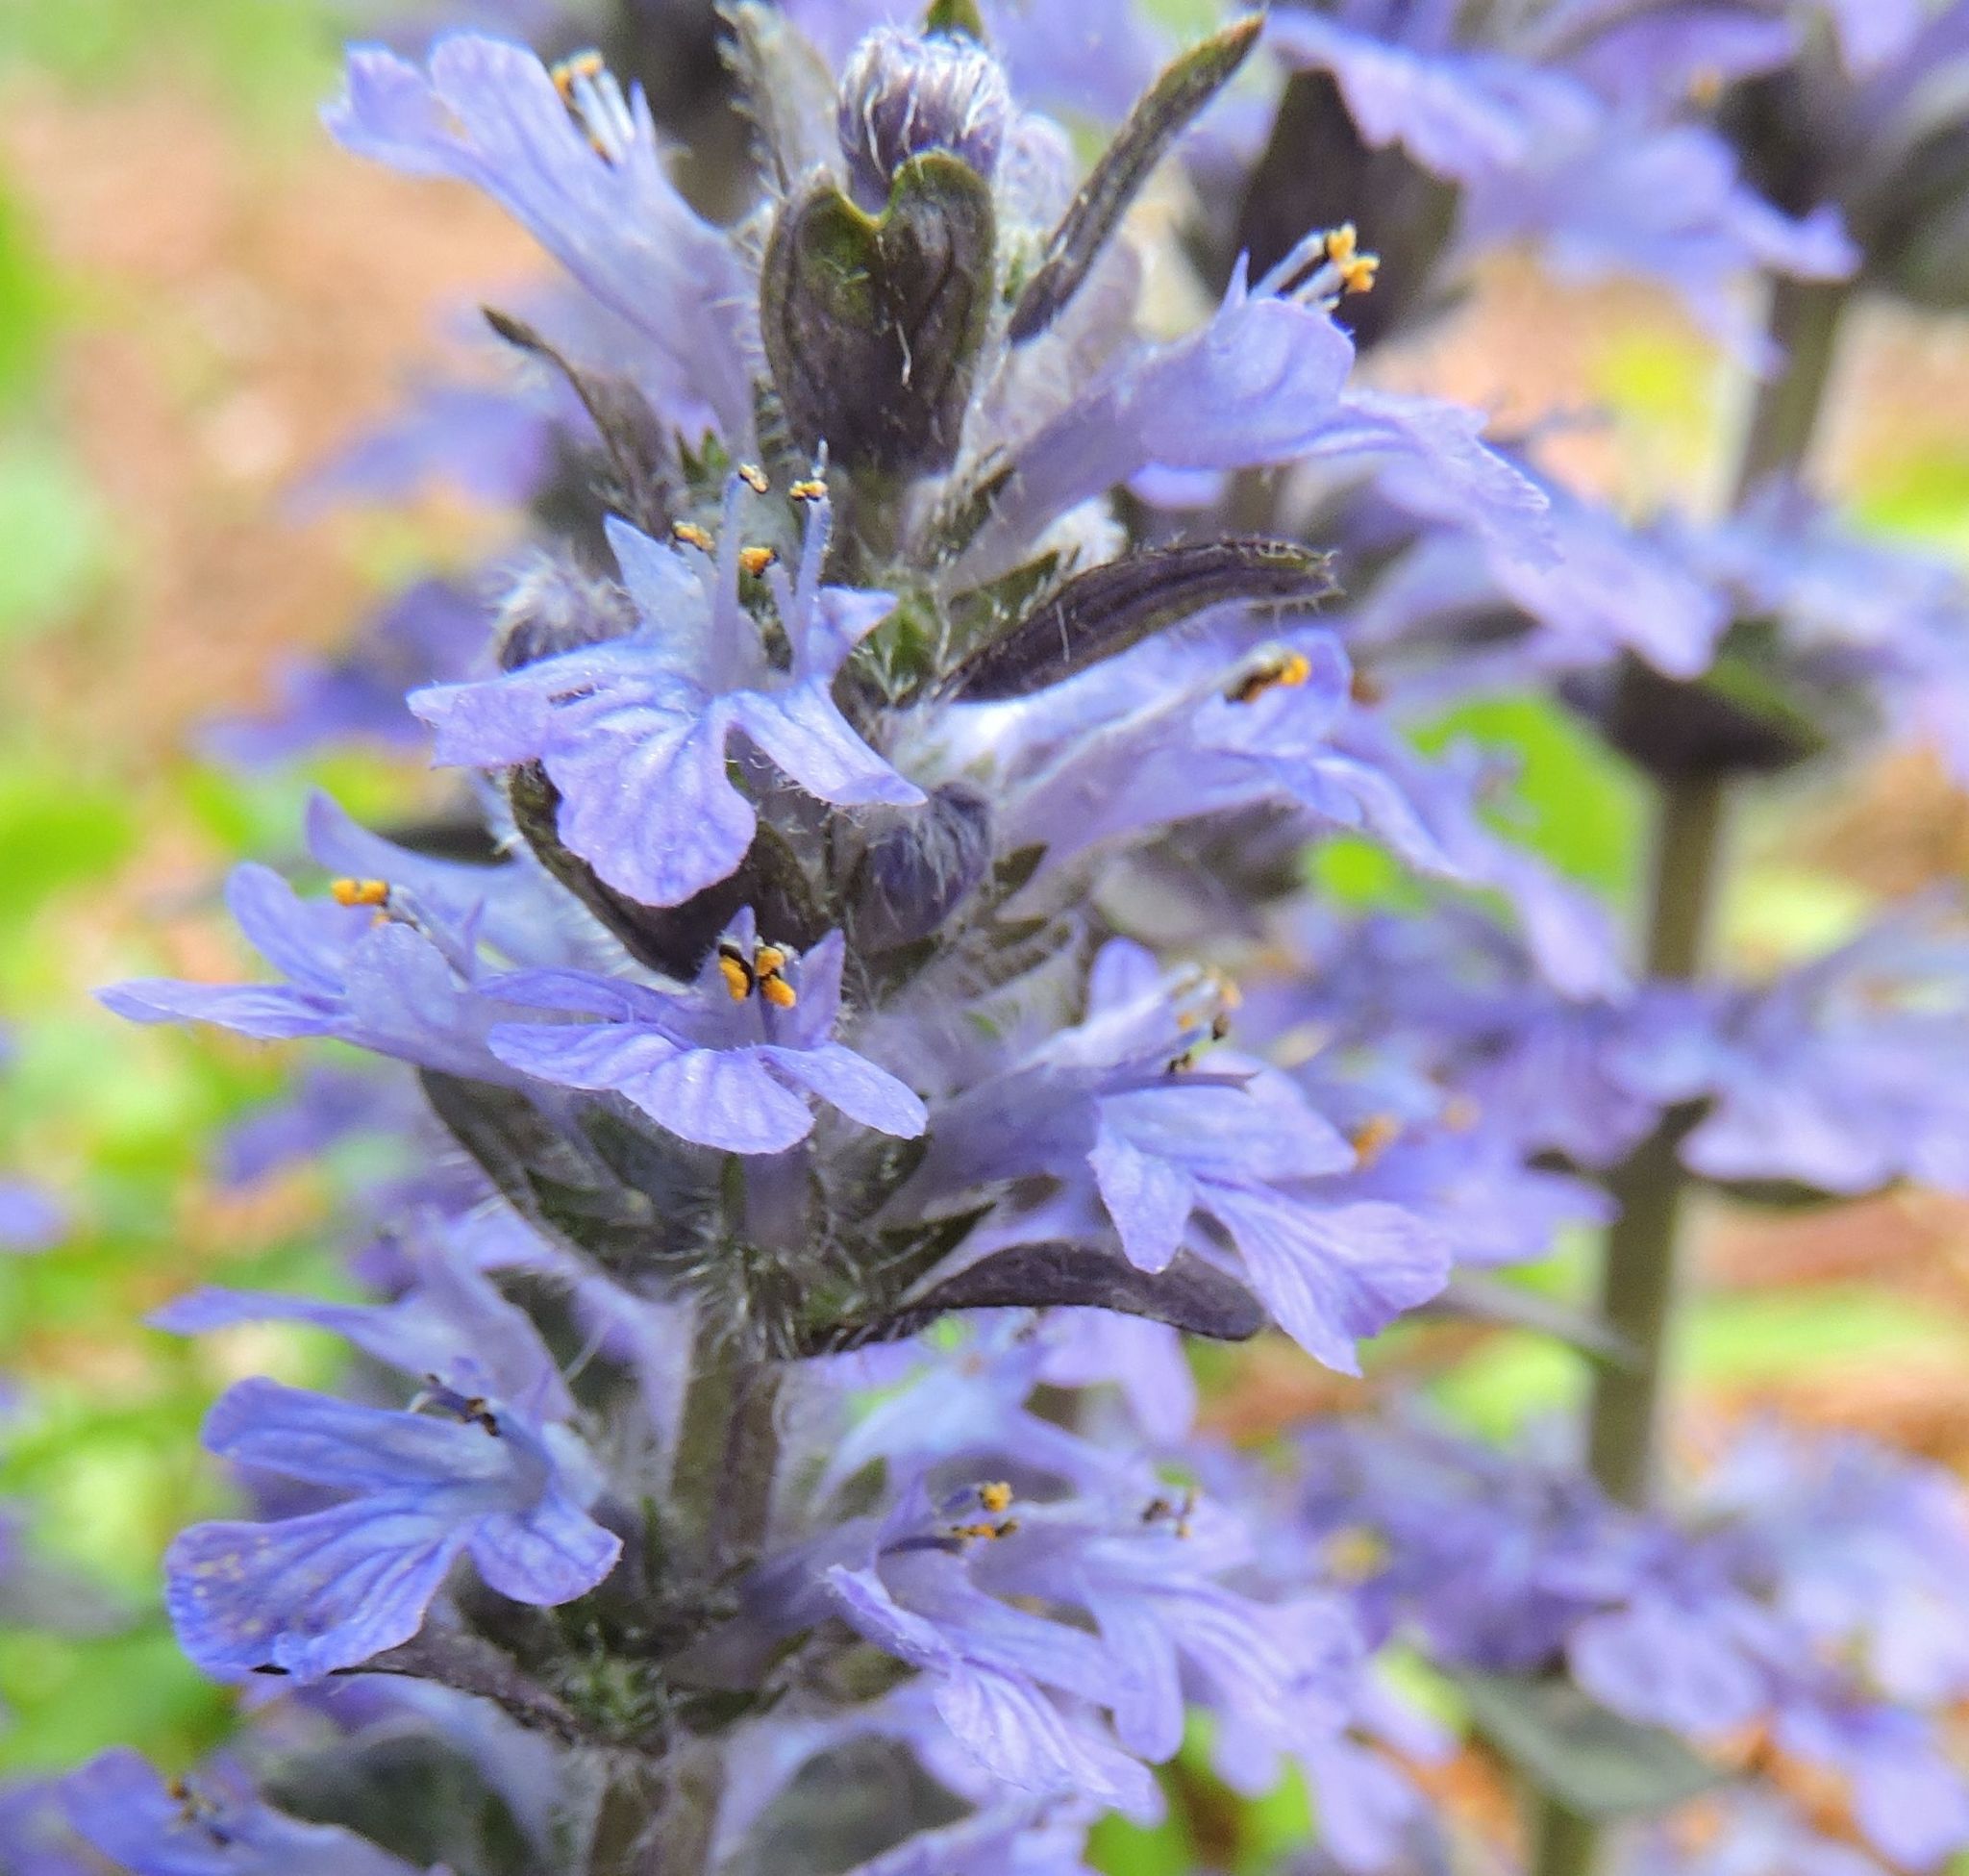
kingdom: Plantae
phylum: Tracheophyta
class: Magnoliopsida
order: Lamiales
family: Lamiaceae
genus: Ajuga
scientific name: Ajuga reptans
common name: Bugle
